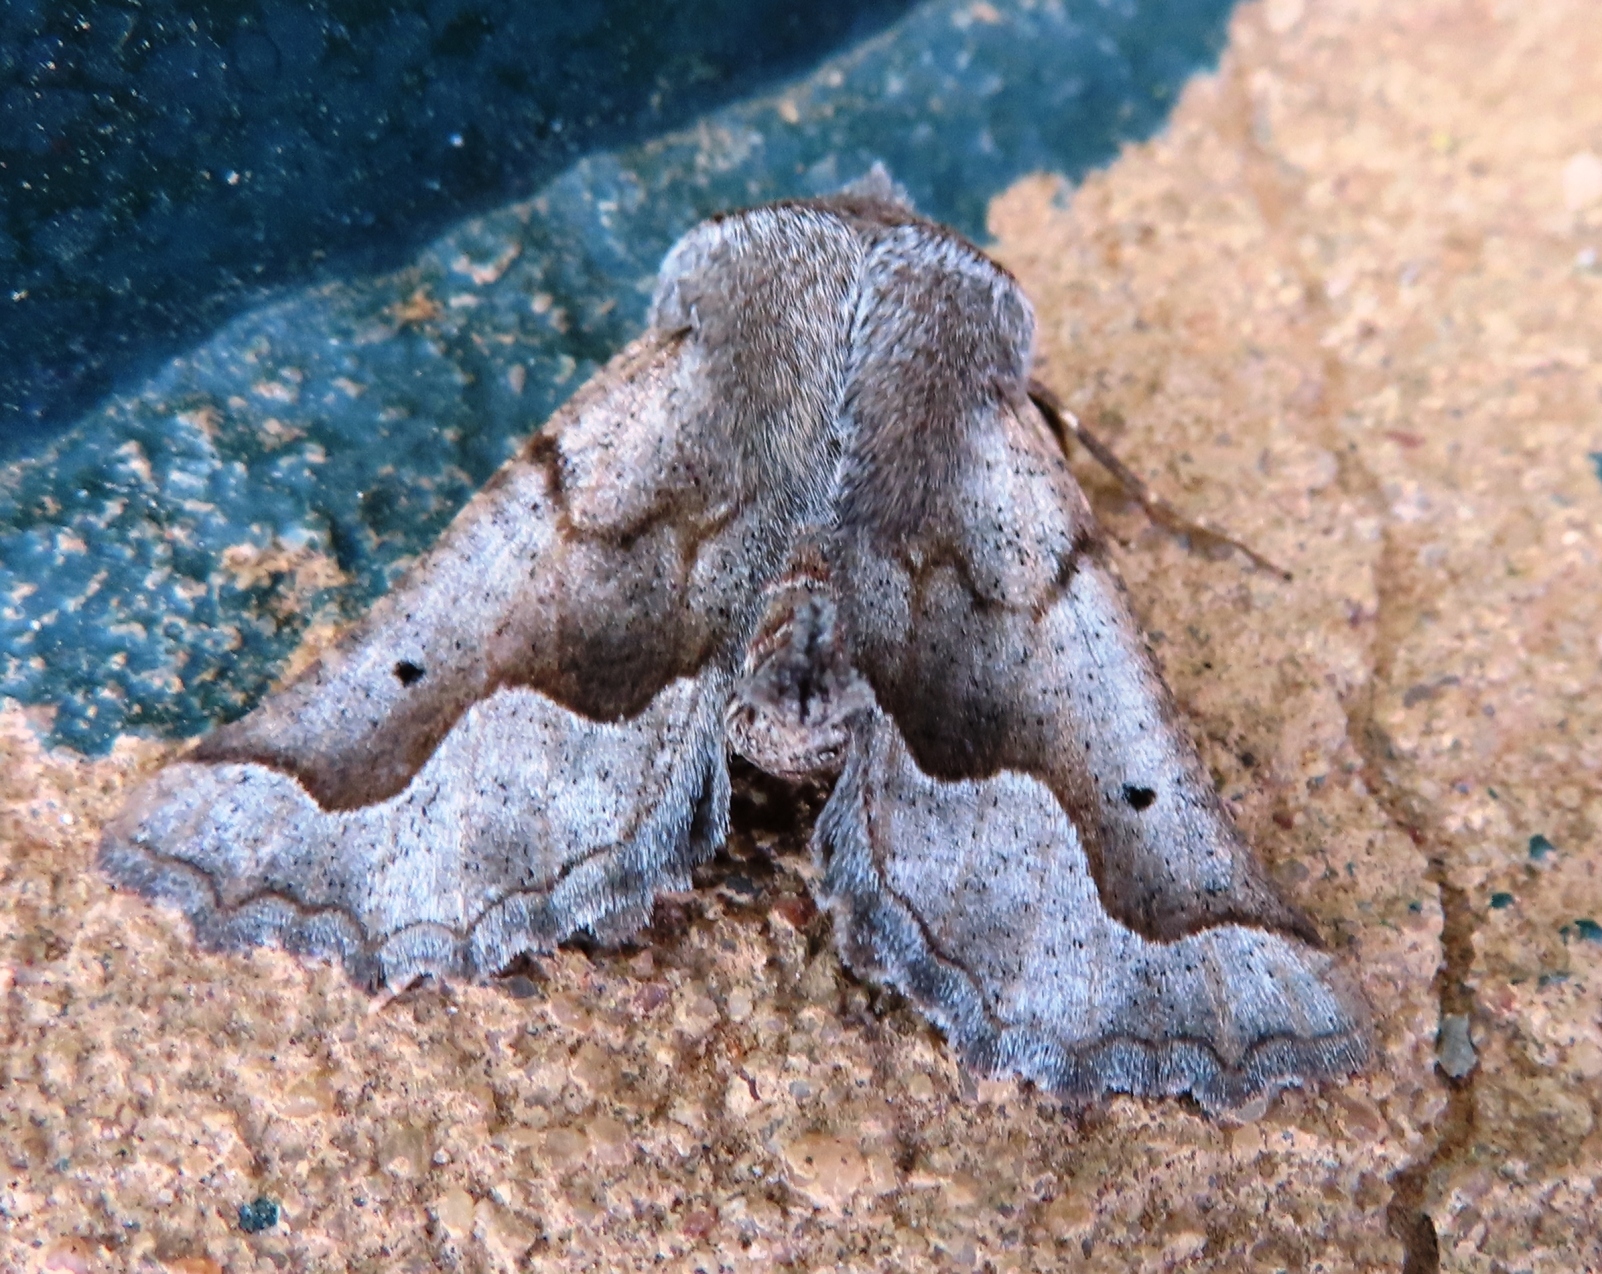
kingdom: Animalia
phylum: Arthropoda
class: Insecta
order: Lepidoptera
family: Geometridae
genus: Axiodes
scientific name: Axiodes figurata
